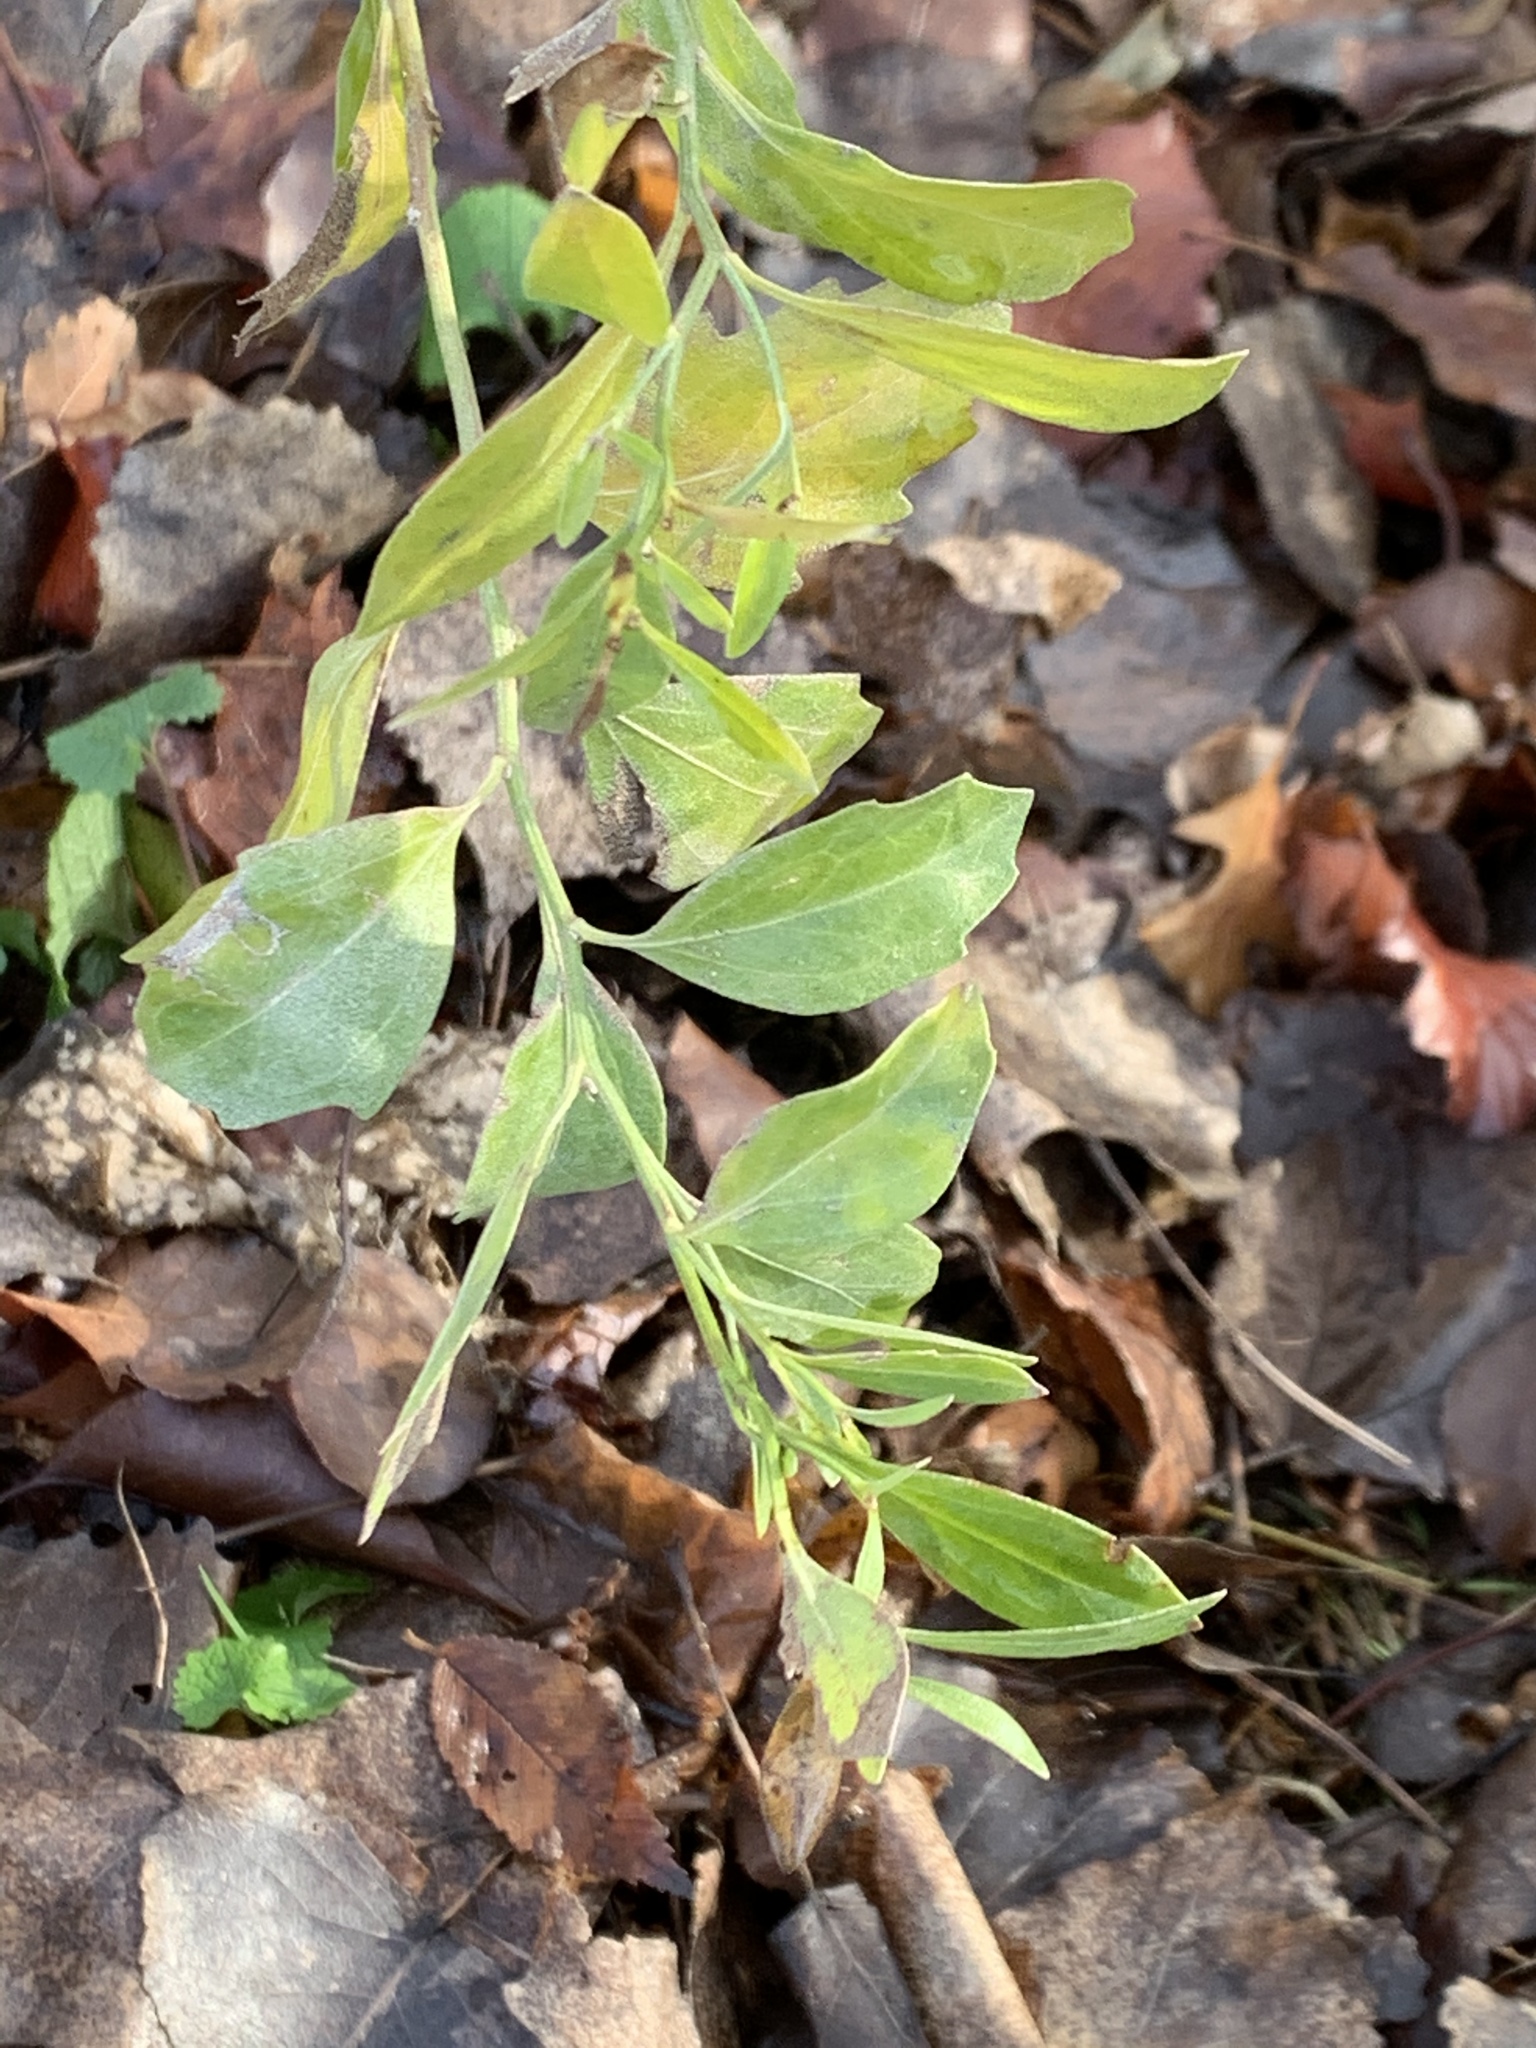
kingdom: Plantae
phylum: Tracheophyta
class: Magnoliopsida
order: Asterales
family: Asteraceae
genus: Baccharis
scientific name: Baccharis halimifolia
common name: Eastern baccharis
